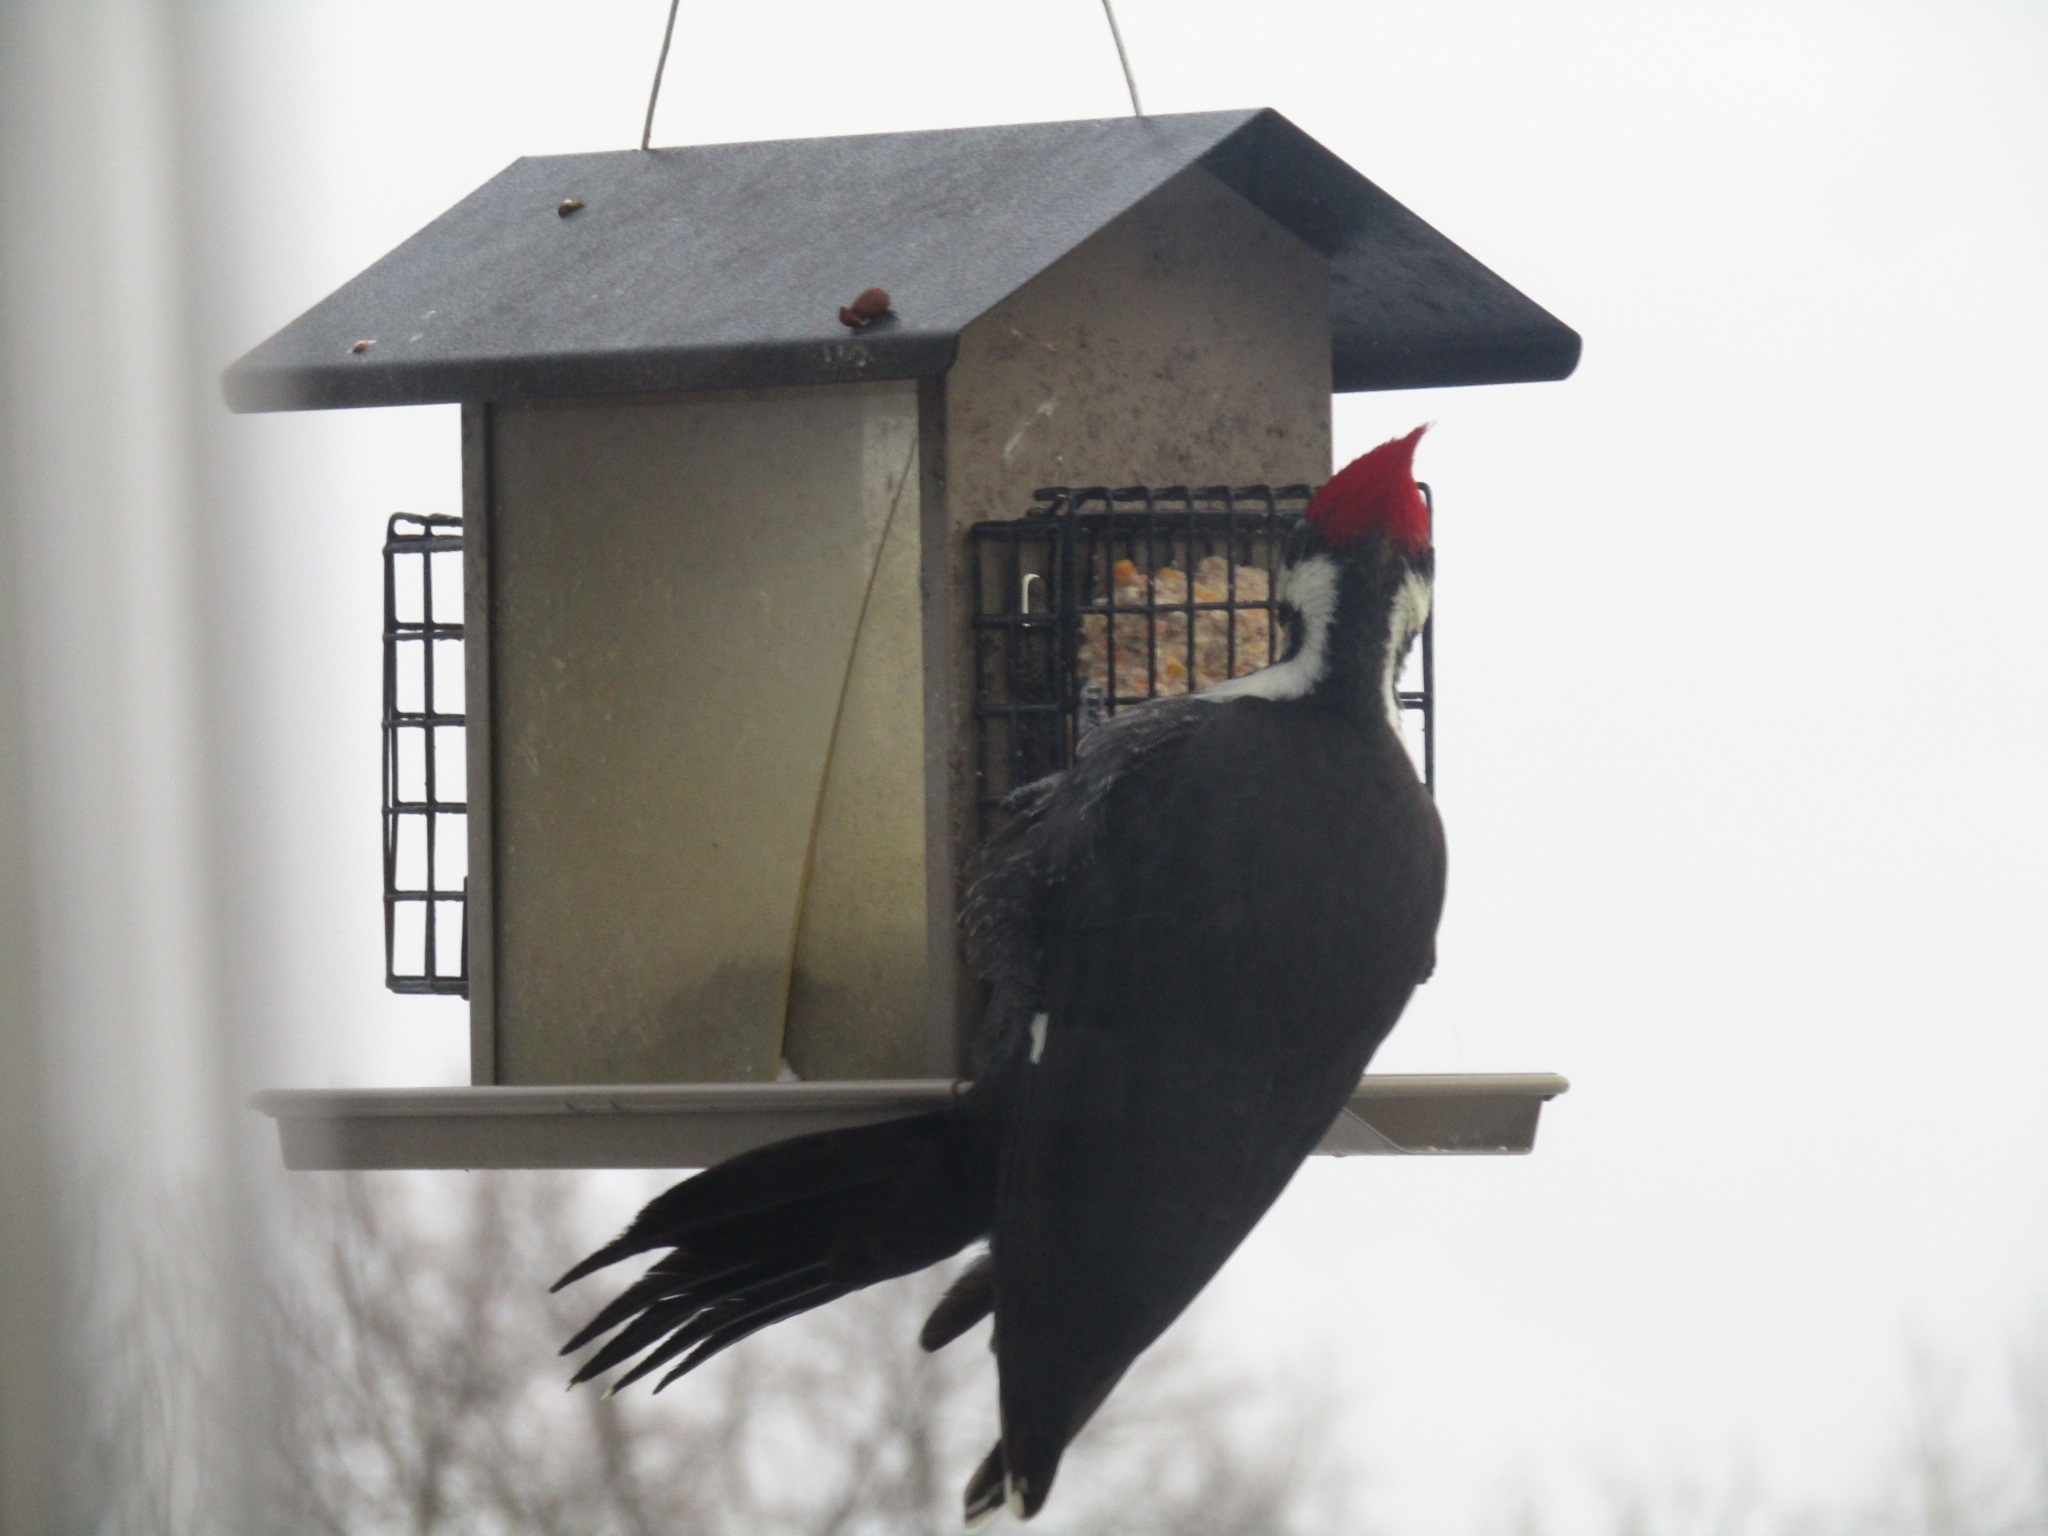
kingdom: Animalia
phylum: Chordata
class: Aves
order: Piciformes
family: Picidae
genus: Dryocopus
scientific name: Dryocopus pileatus
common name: Pileated woodpecker
